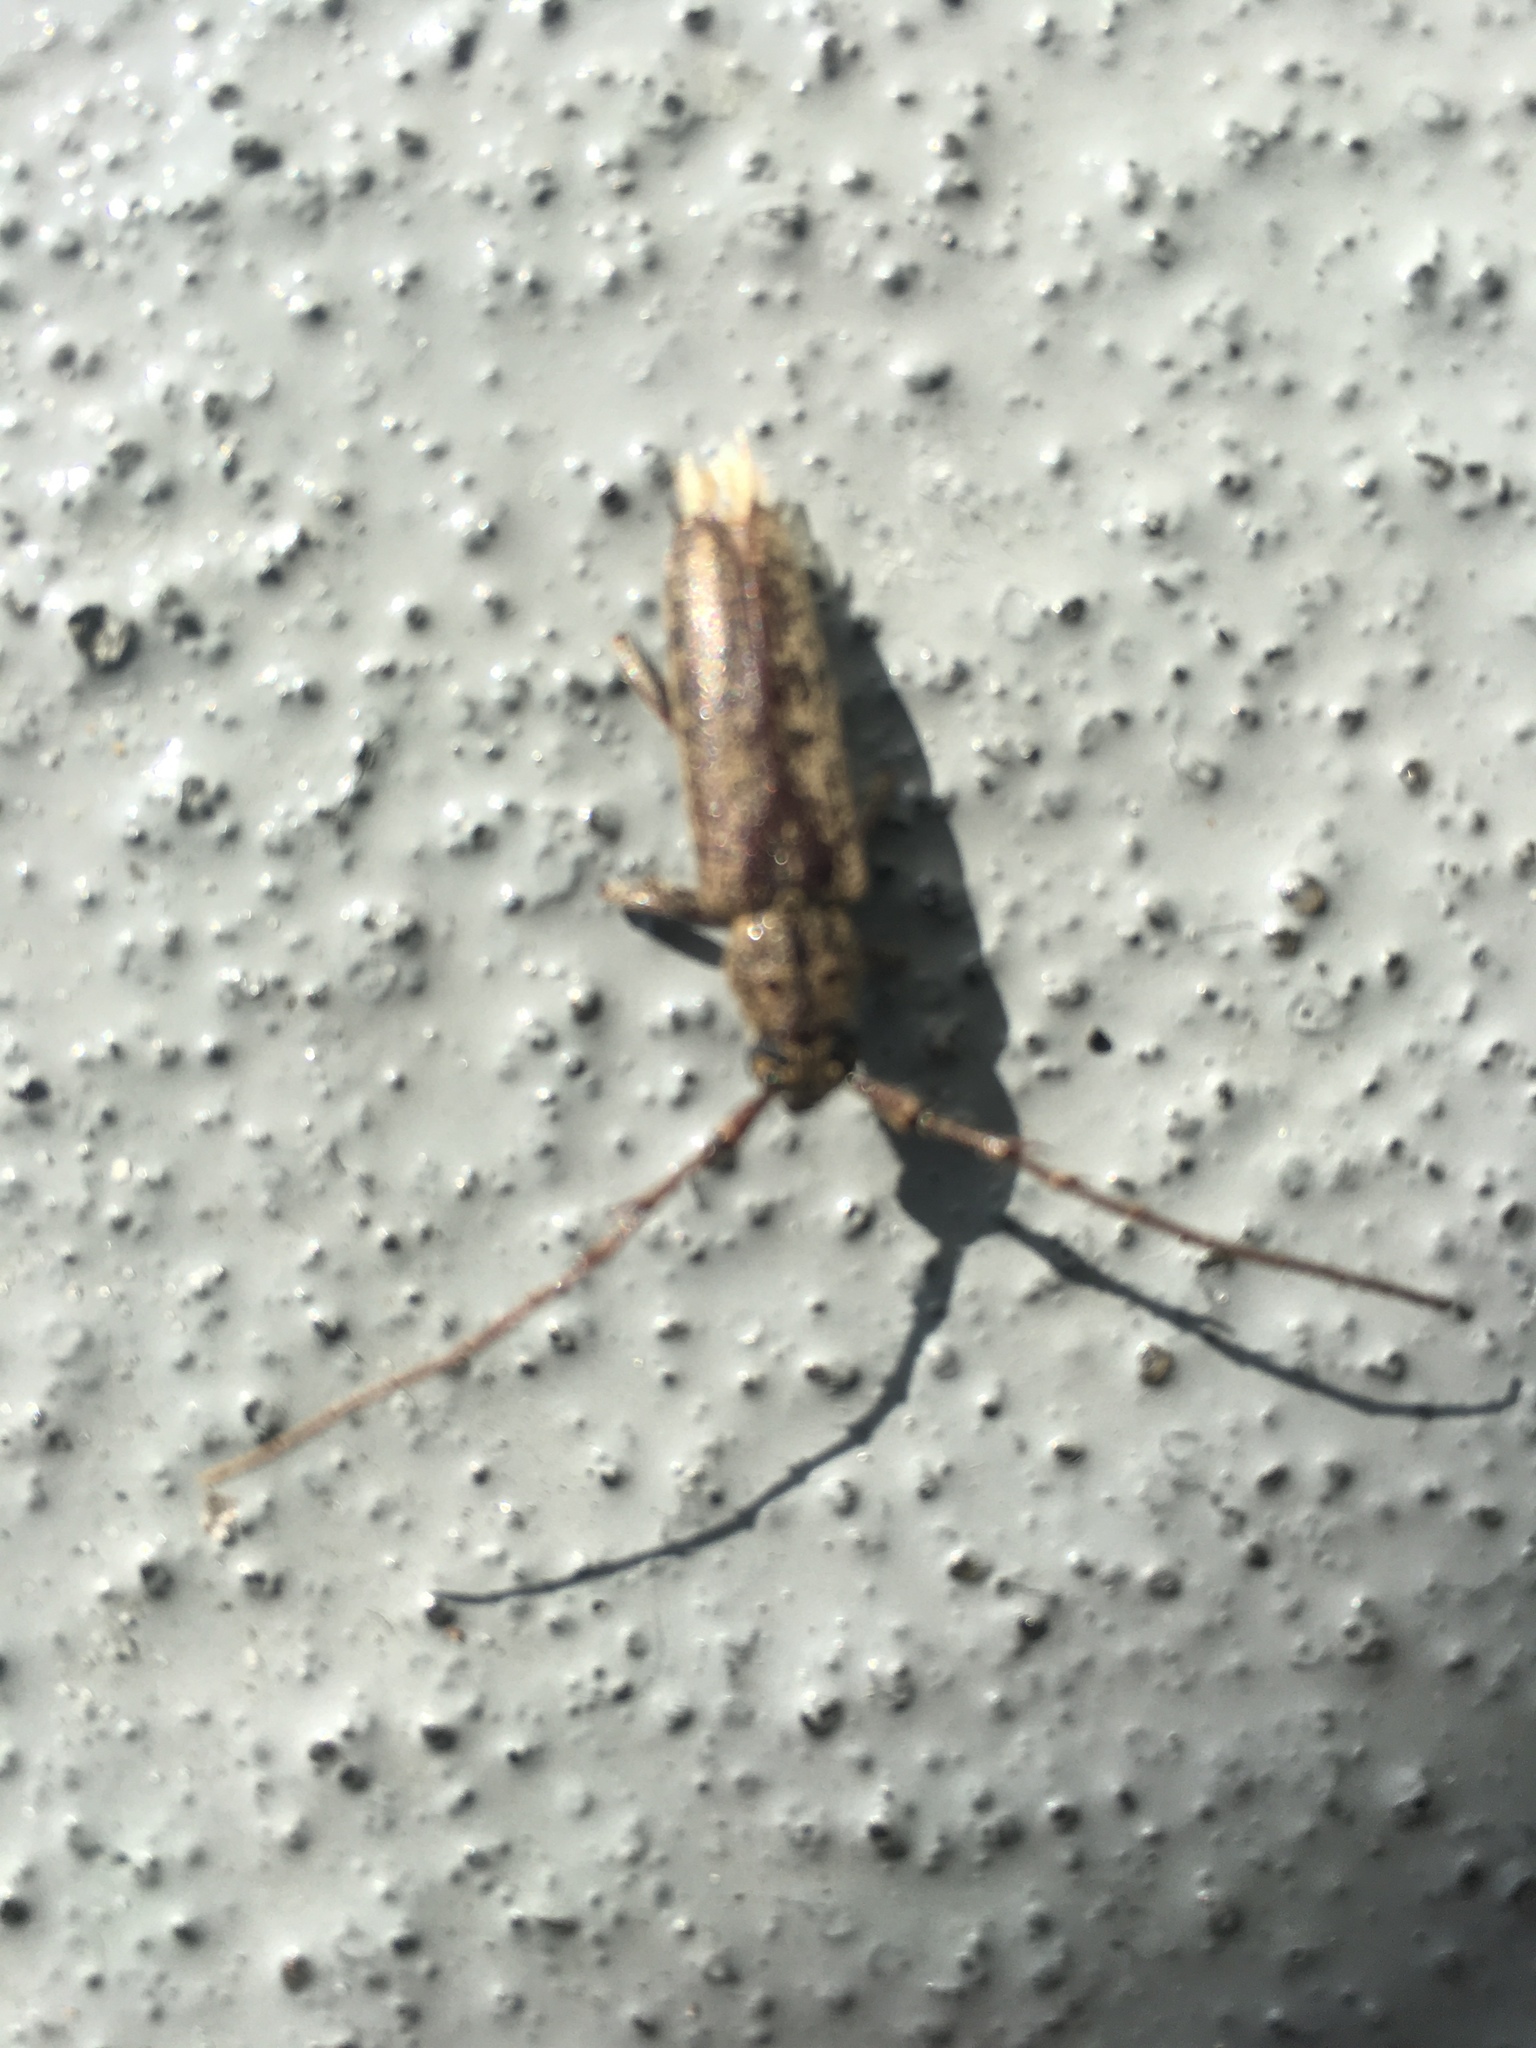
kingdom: Animalia
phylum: Arthropoda
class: Insecta
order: Coleoptera
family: Cerambycidae
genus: Elaphidion
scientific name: Elaphidion mucronatum
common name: Spined oak borer
